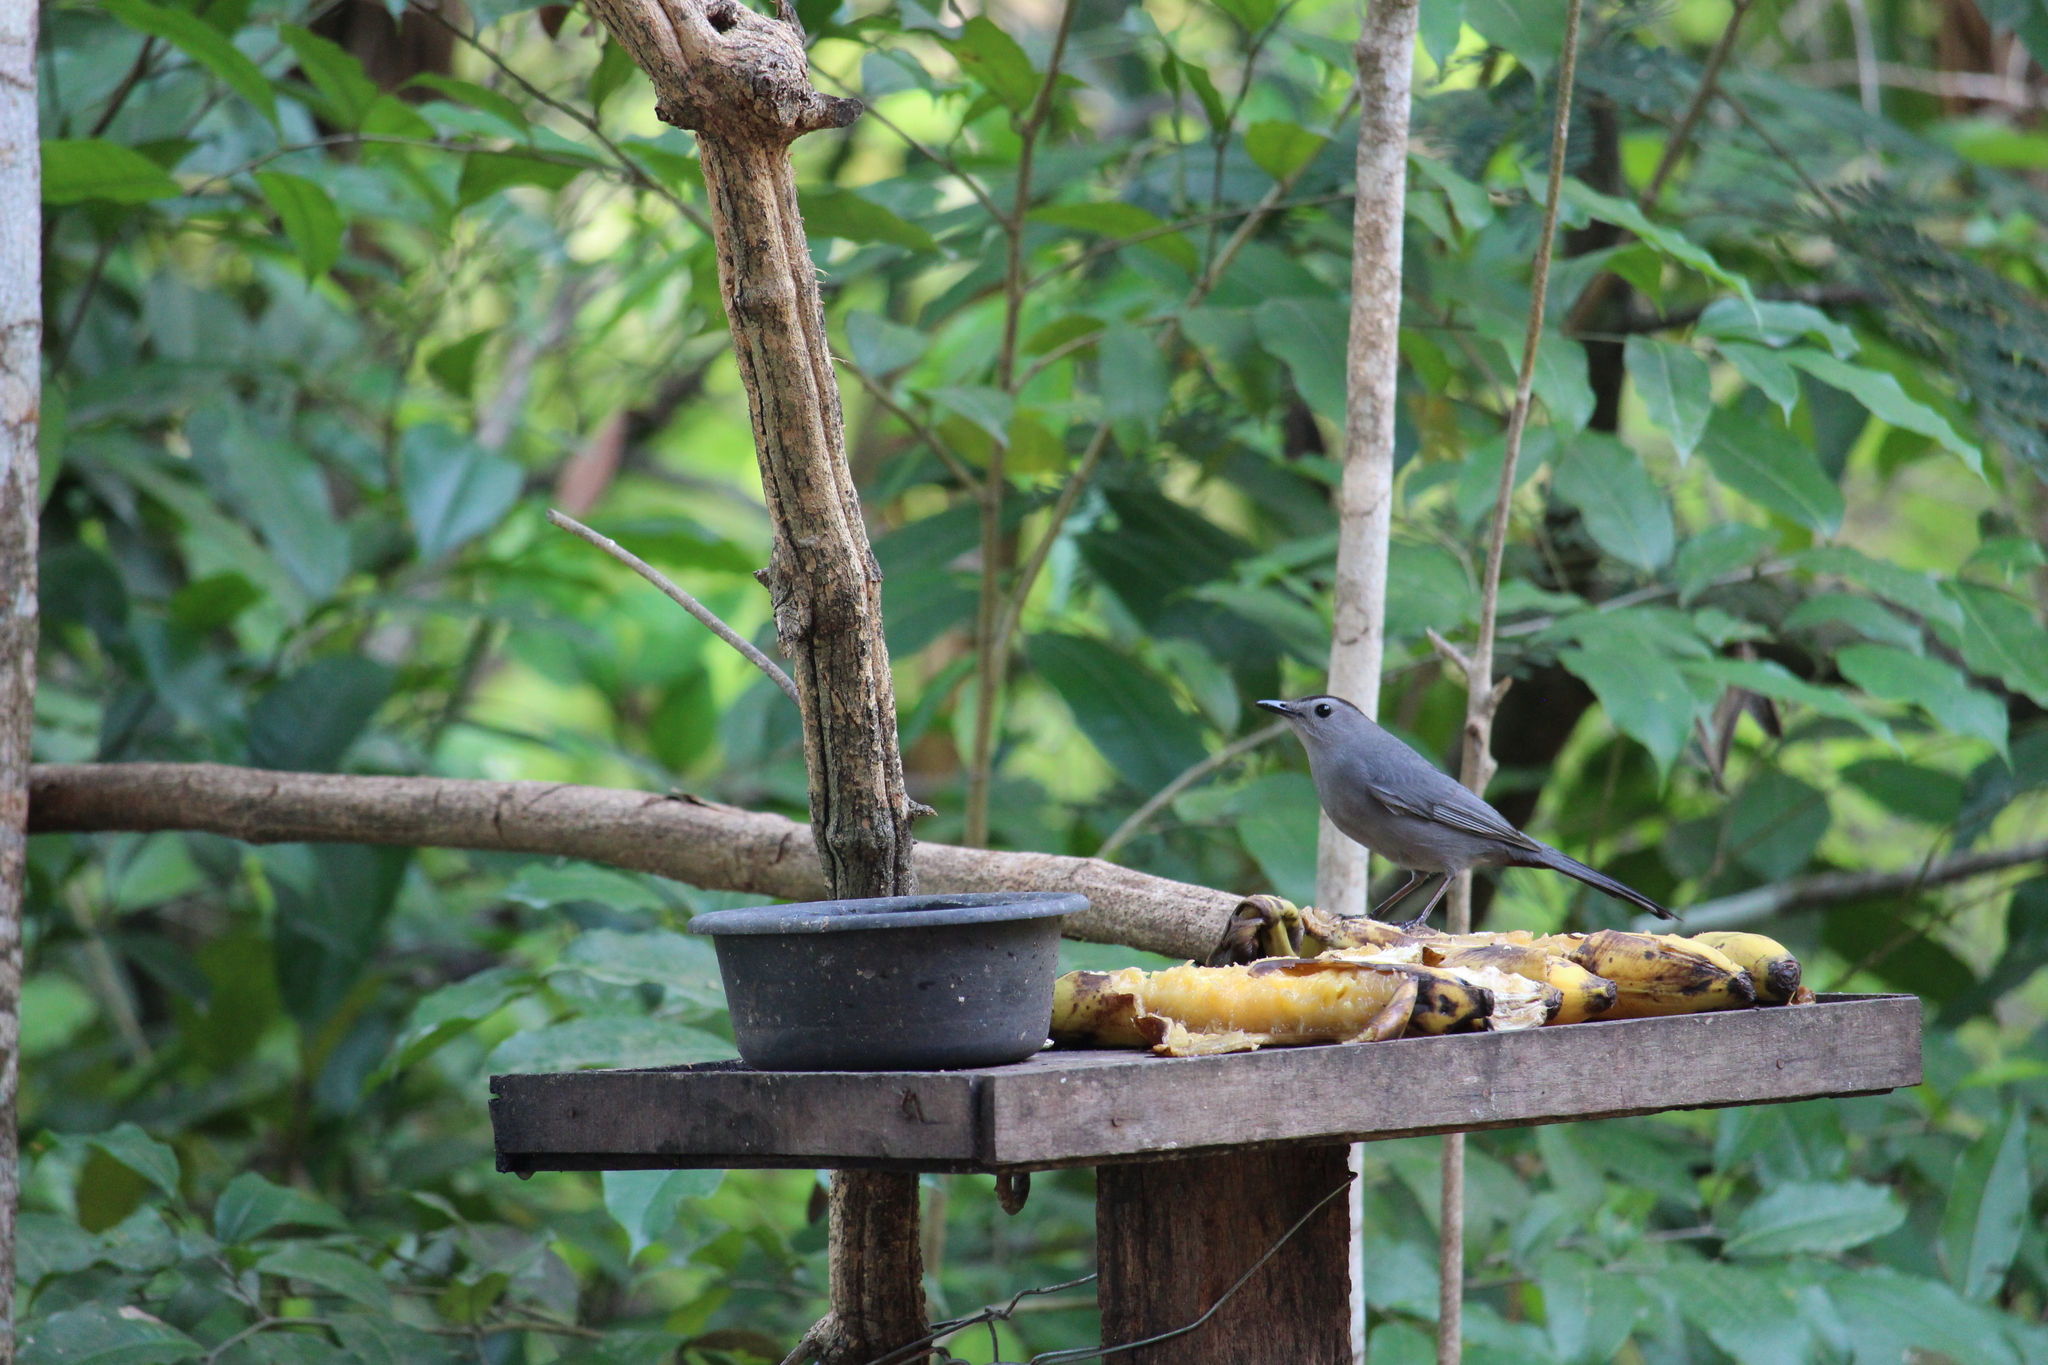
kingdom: Animalia
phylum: Chordata
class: Aves
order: Passeriformes
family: Mimidae
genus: Dumetella
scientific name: Dumetella carolinensis
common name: Gray catbird
